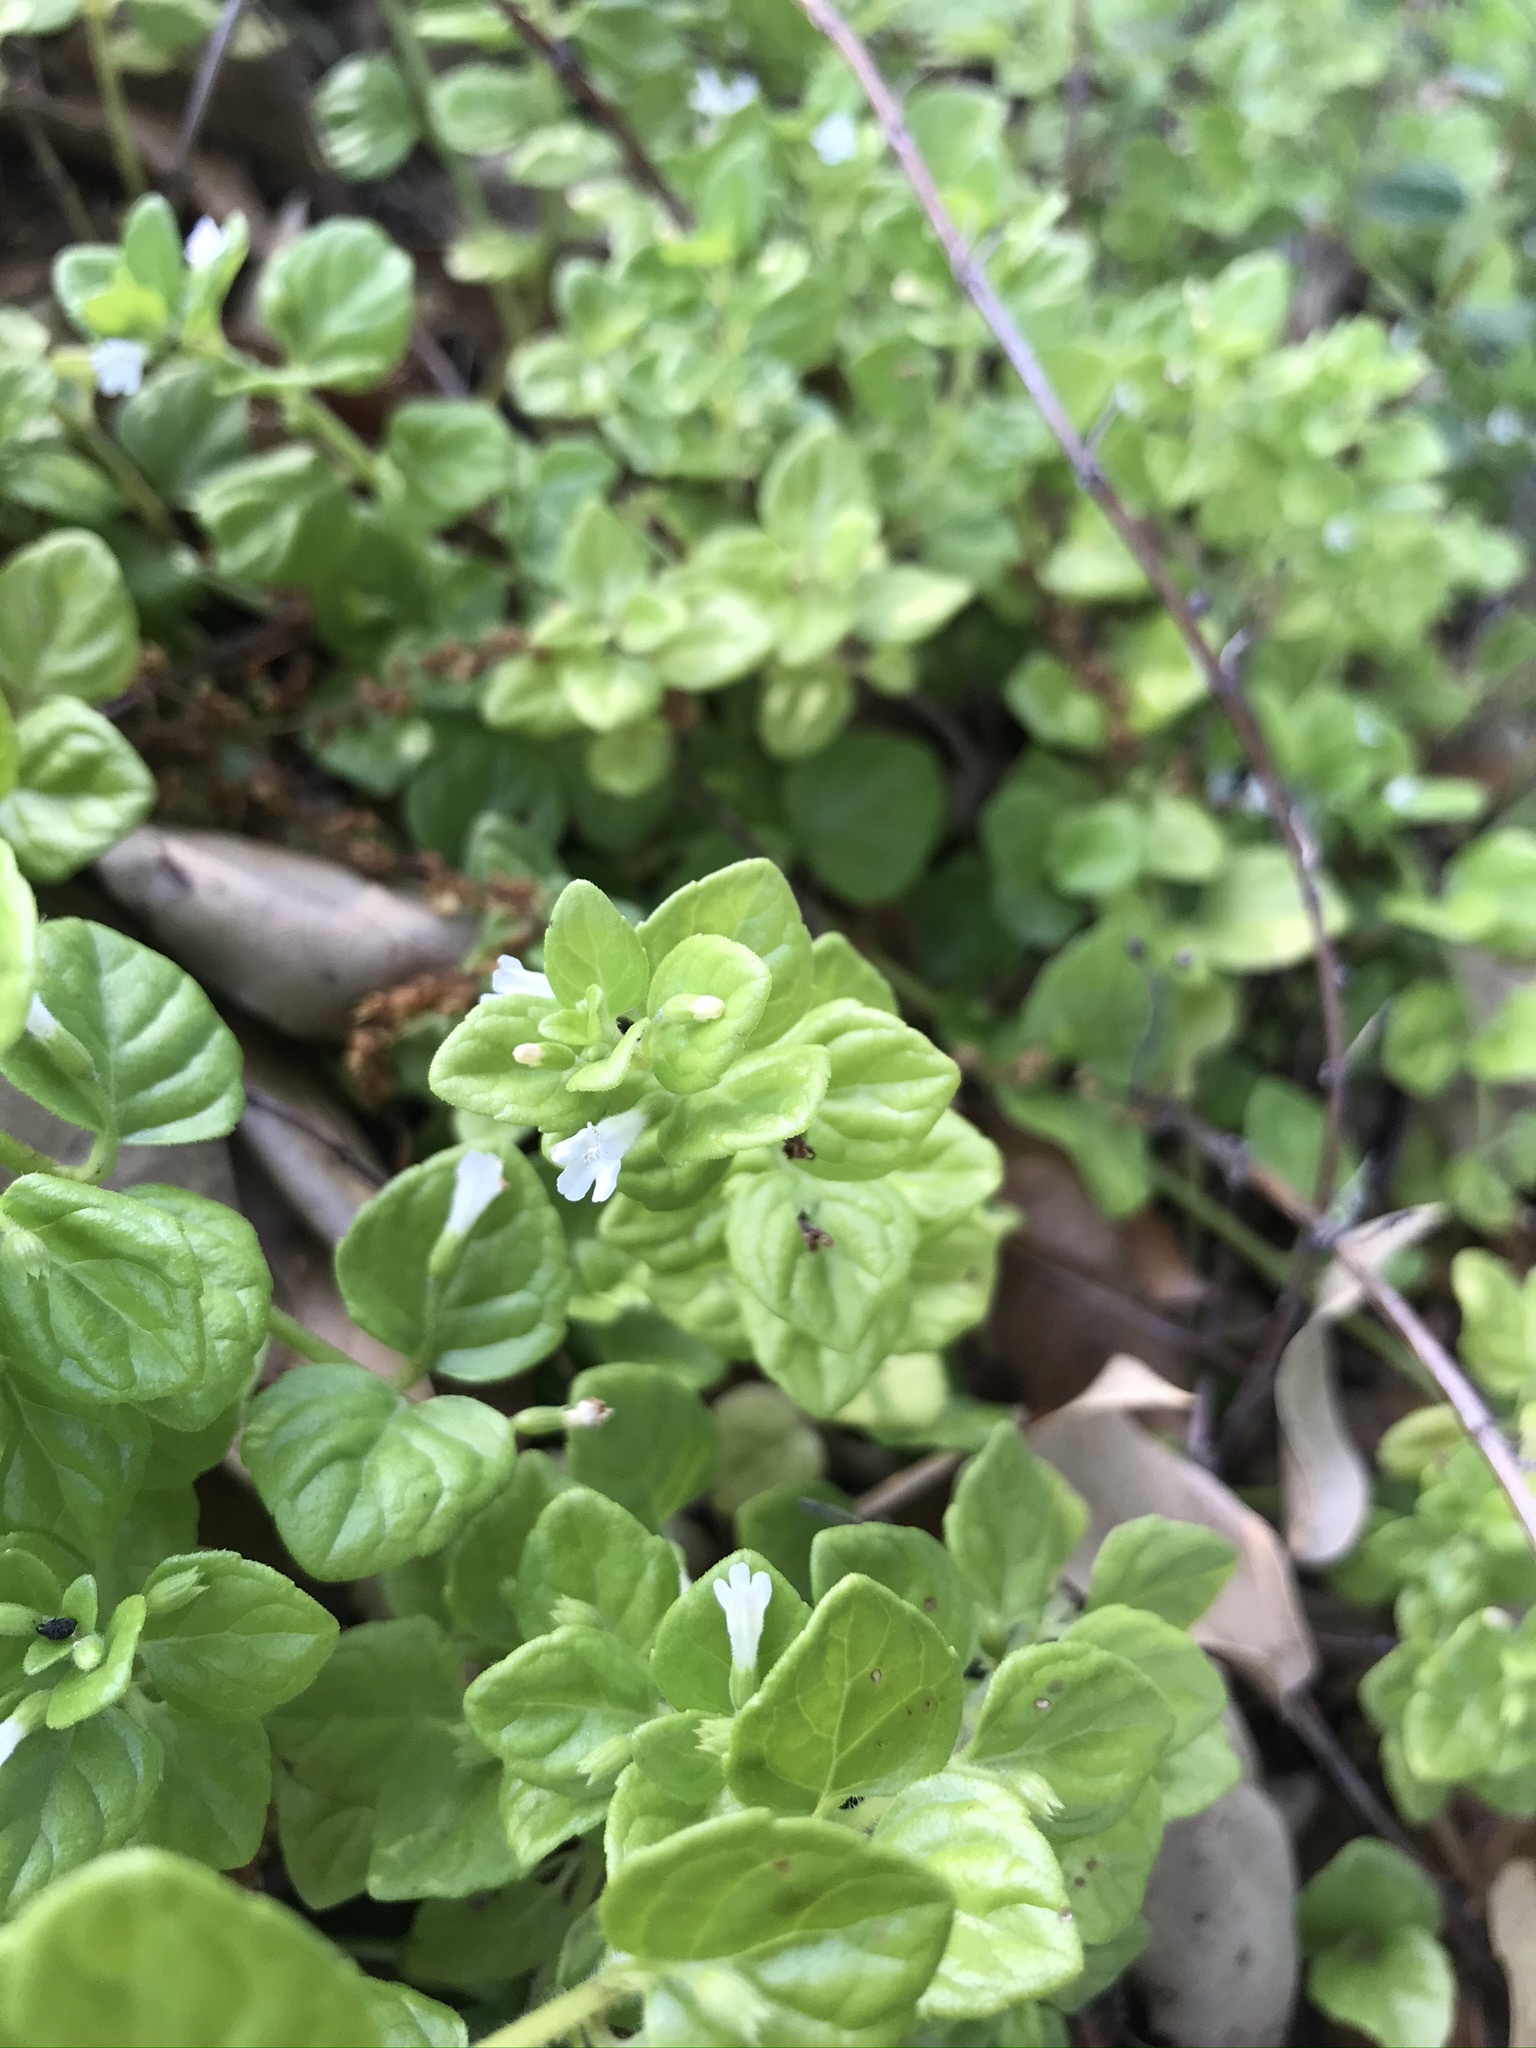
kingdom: Plantae
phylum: Tracheophyta
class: Magnoliopsida
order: Lamiales
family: Lamiaceae
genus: Micromeria
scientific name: Micromeria douglasii
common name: Yerba buena
